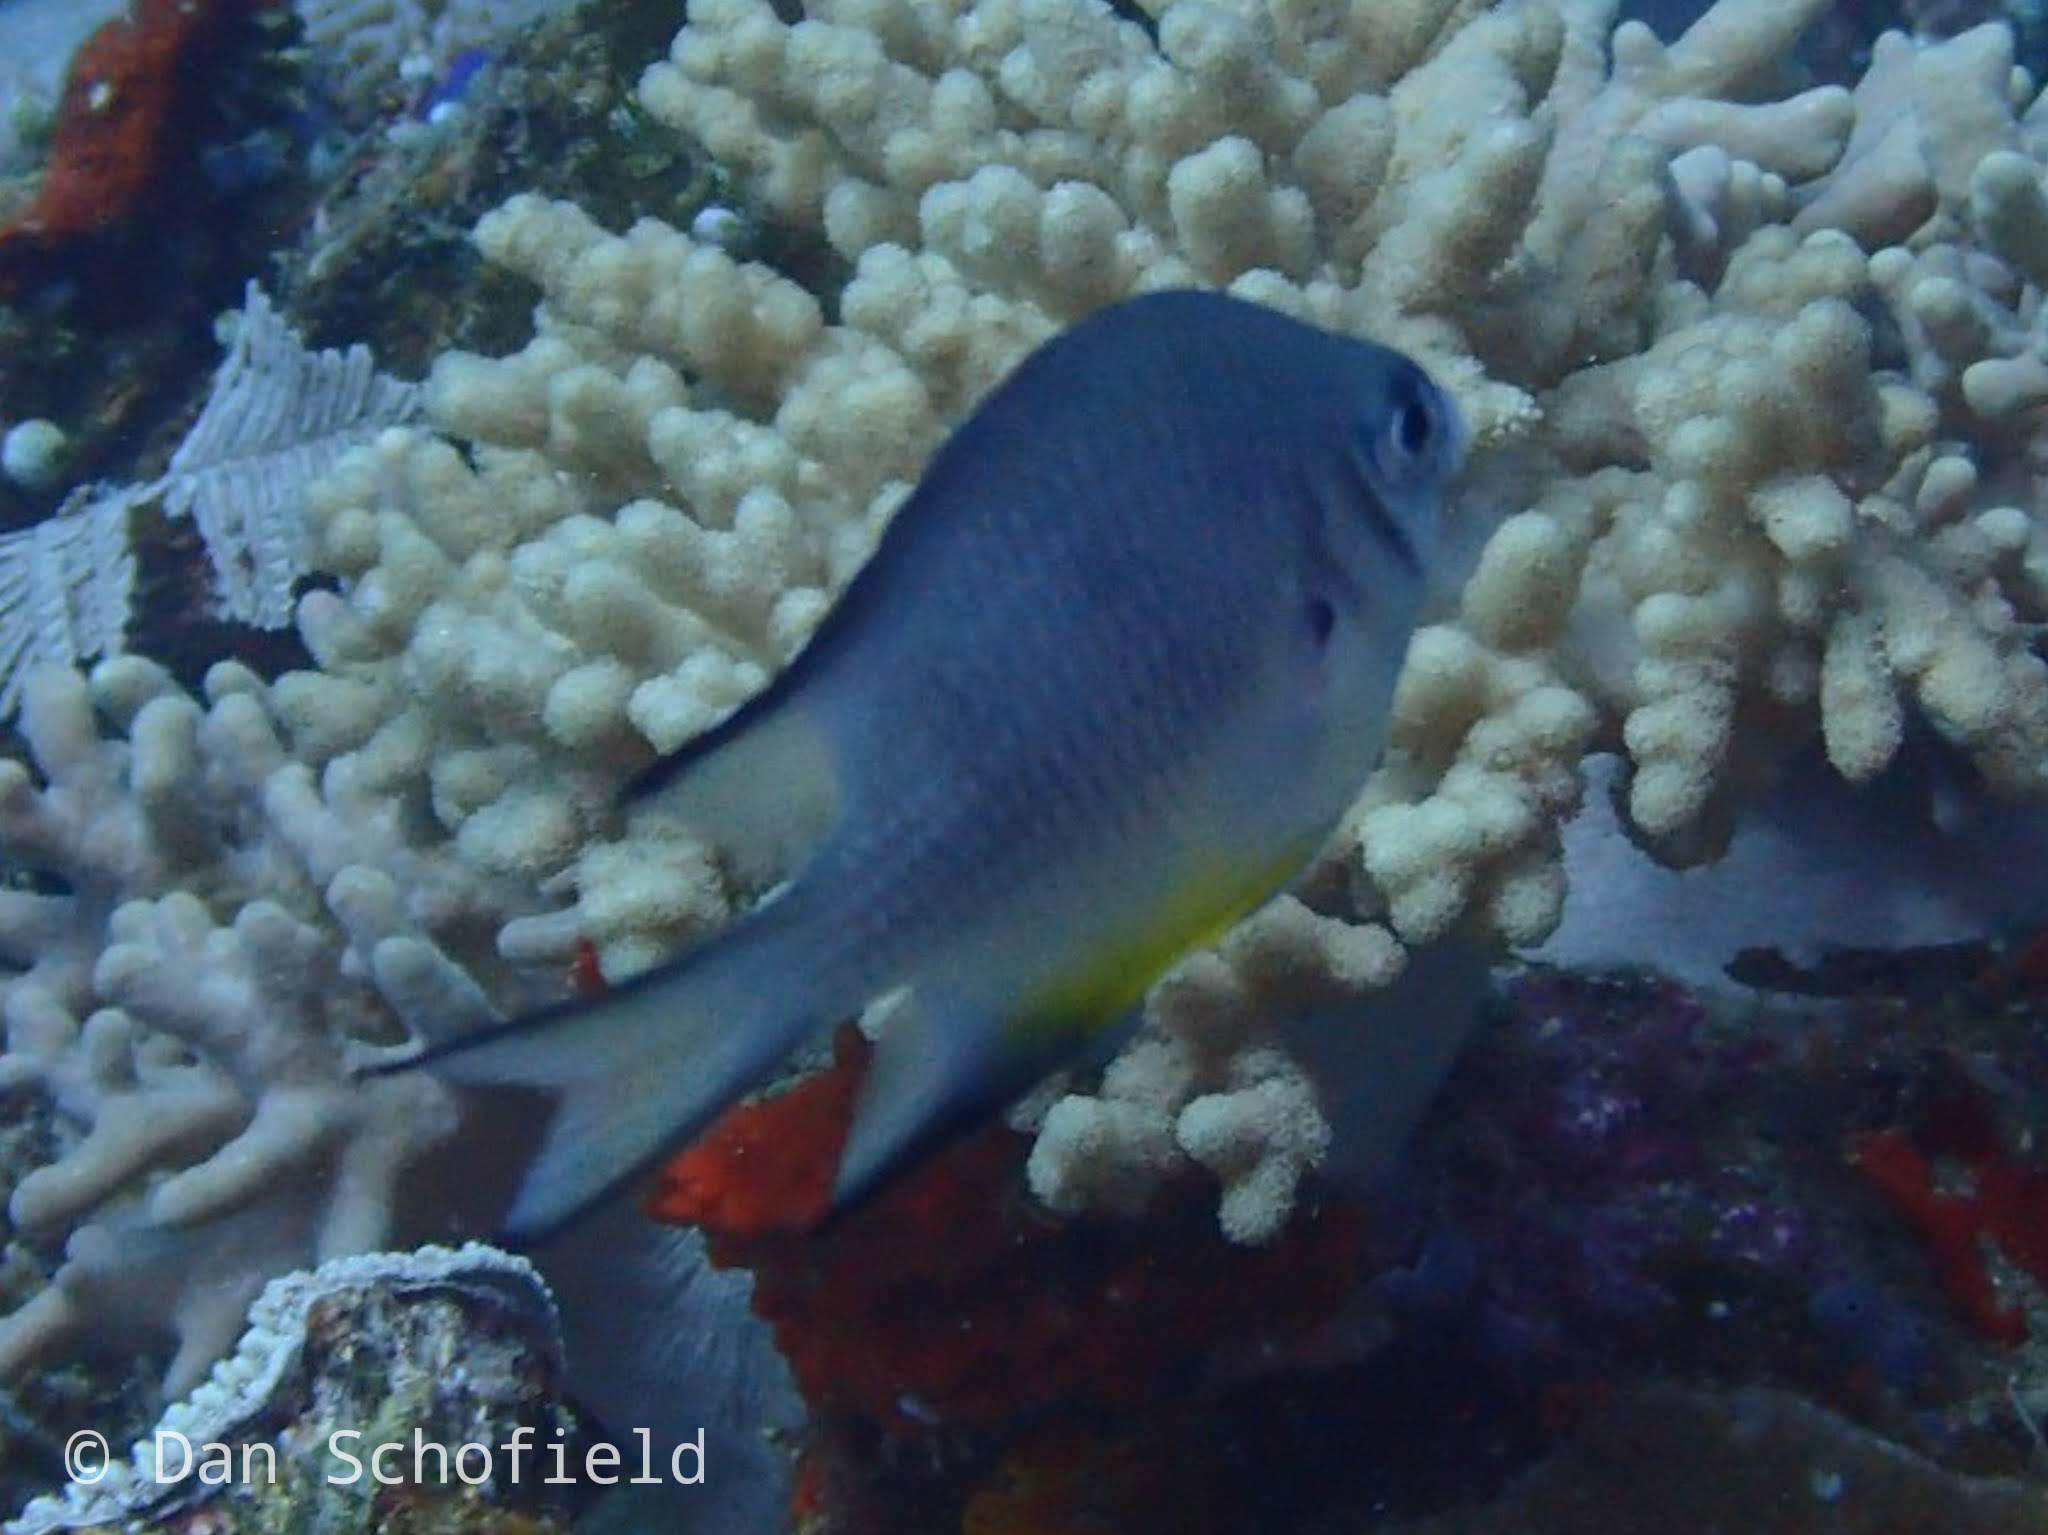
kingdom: Animalia
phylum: Chordata
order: Perciformes
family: Pomacentridae
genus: Amblyglyphidodon
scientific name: Amblyglyphidodon leucogaster
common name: White-belly damsel
